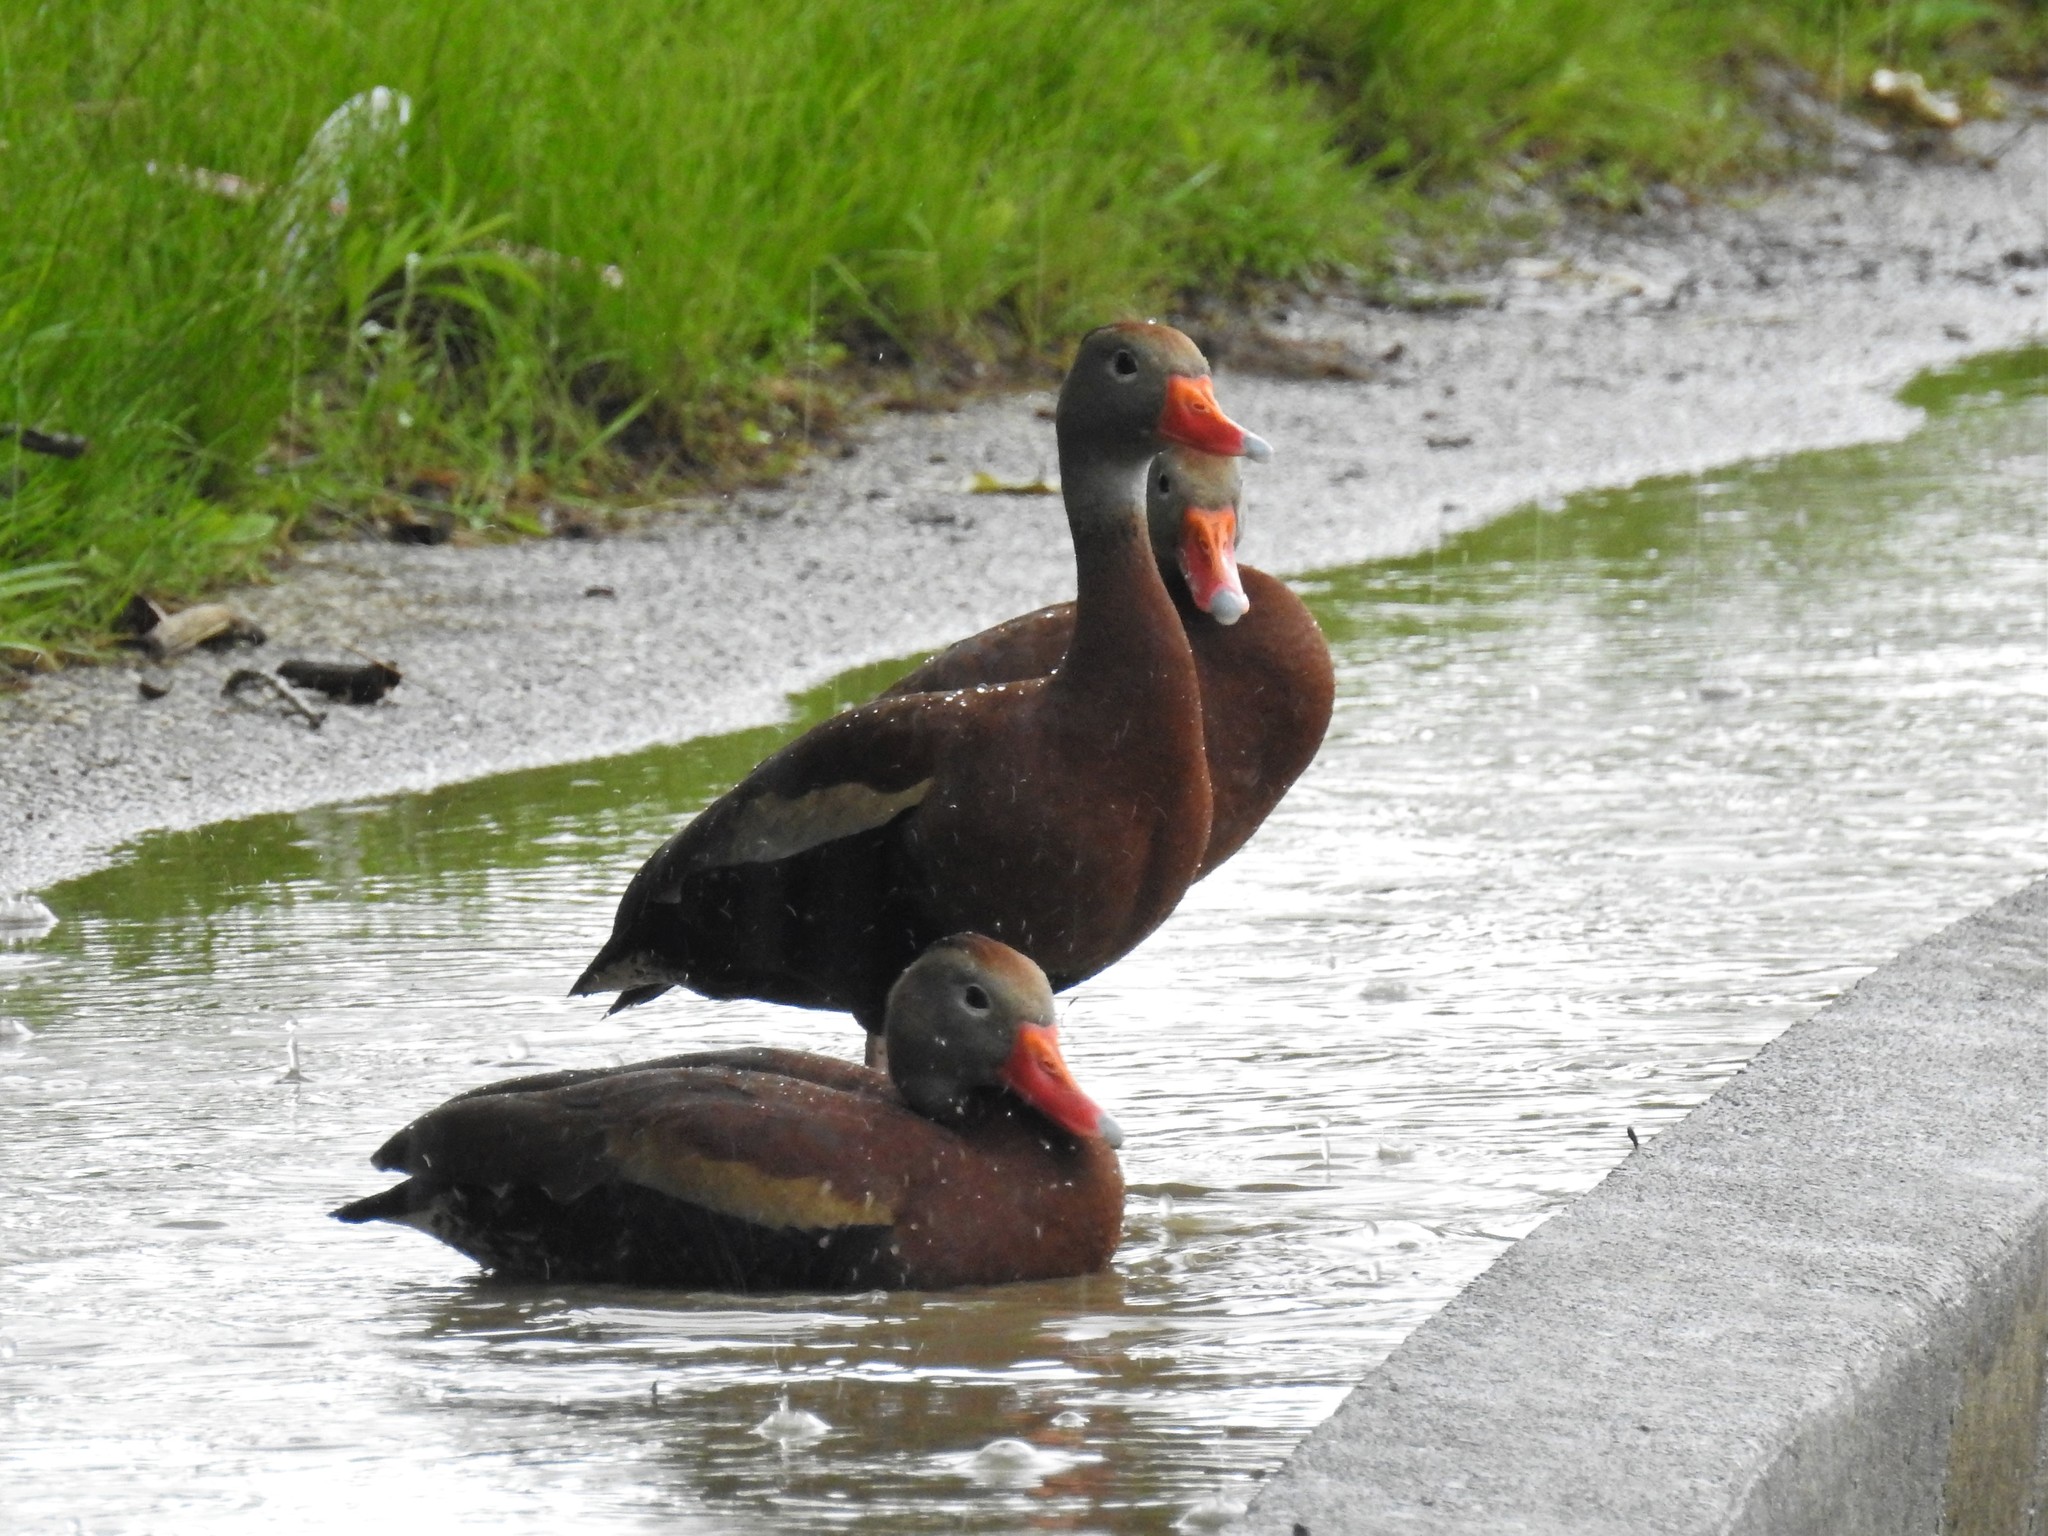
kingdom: Animalia
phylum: Chordata
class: Aves
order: Anseriformes
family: Anatidae
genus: Dendrocygna
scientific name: Dendrocygna autumnalis
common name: Black-bellied whistling duck
